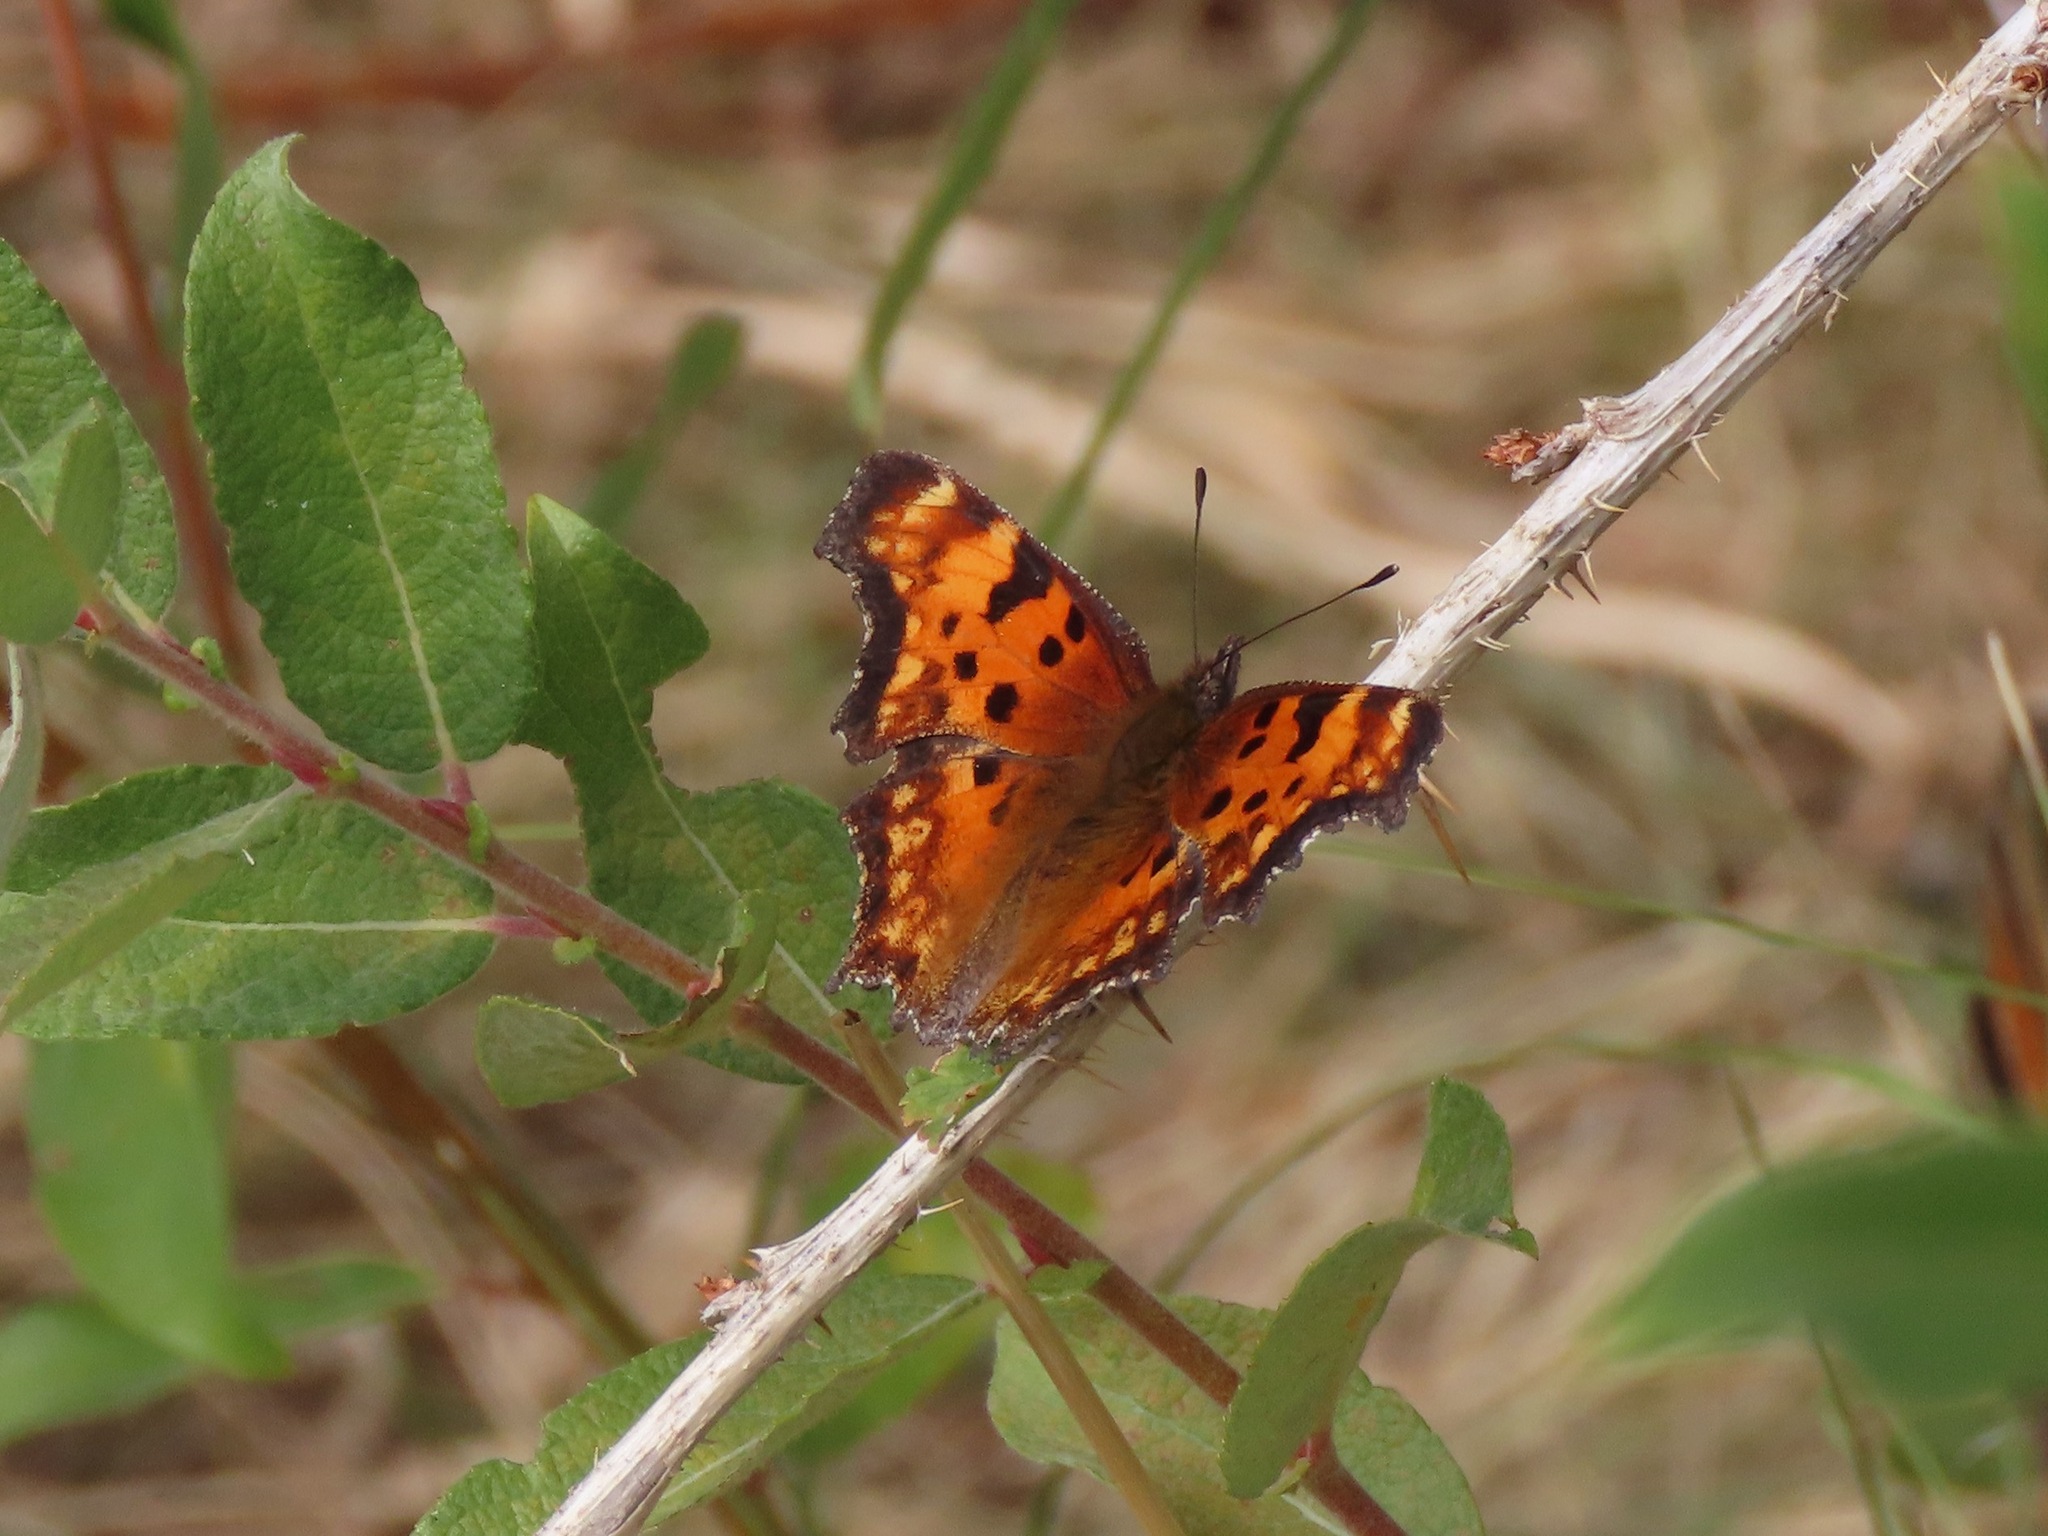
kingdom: Animalia
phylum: Arthropoda
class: Insecta
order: Lepidoptera
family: Nymphalidae
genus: Polygonia
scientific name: Polygonia gracilis
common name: Hoary comma
